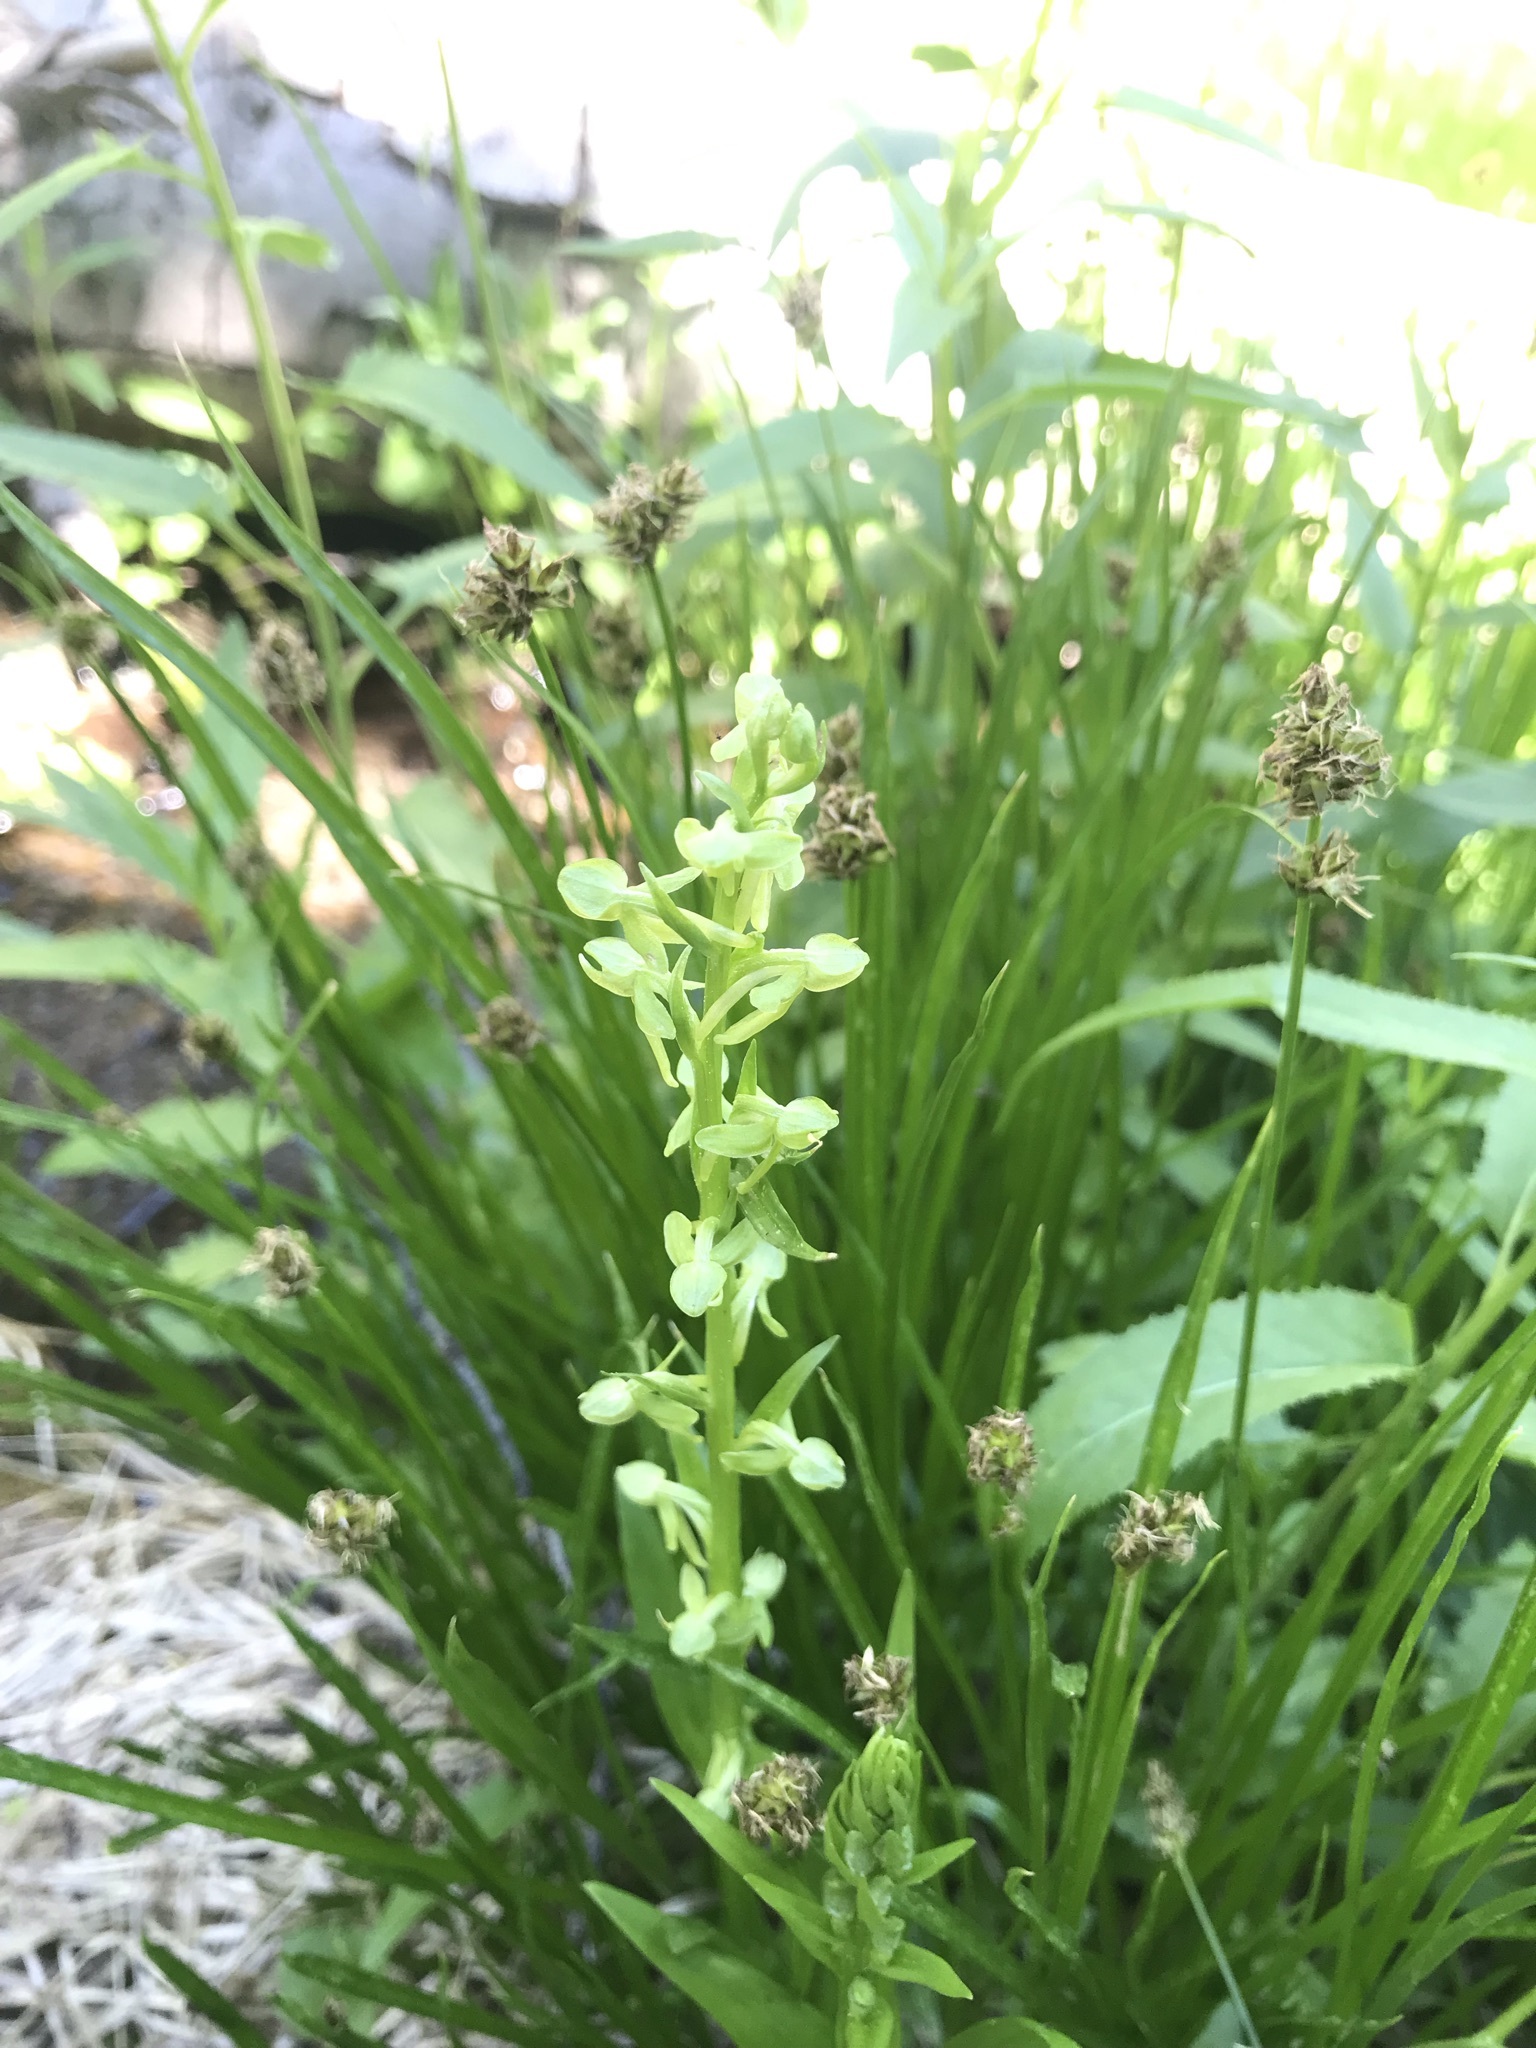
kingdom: Plantae
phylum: Tracheophyta
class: Liliopsida
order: Asparagales
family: Orchidaceae
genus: Platanthera
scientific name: Platanthera sparsiflora
